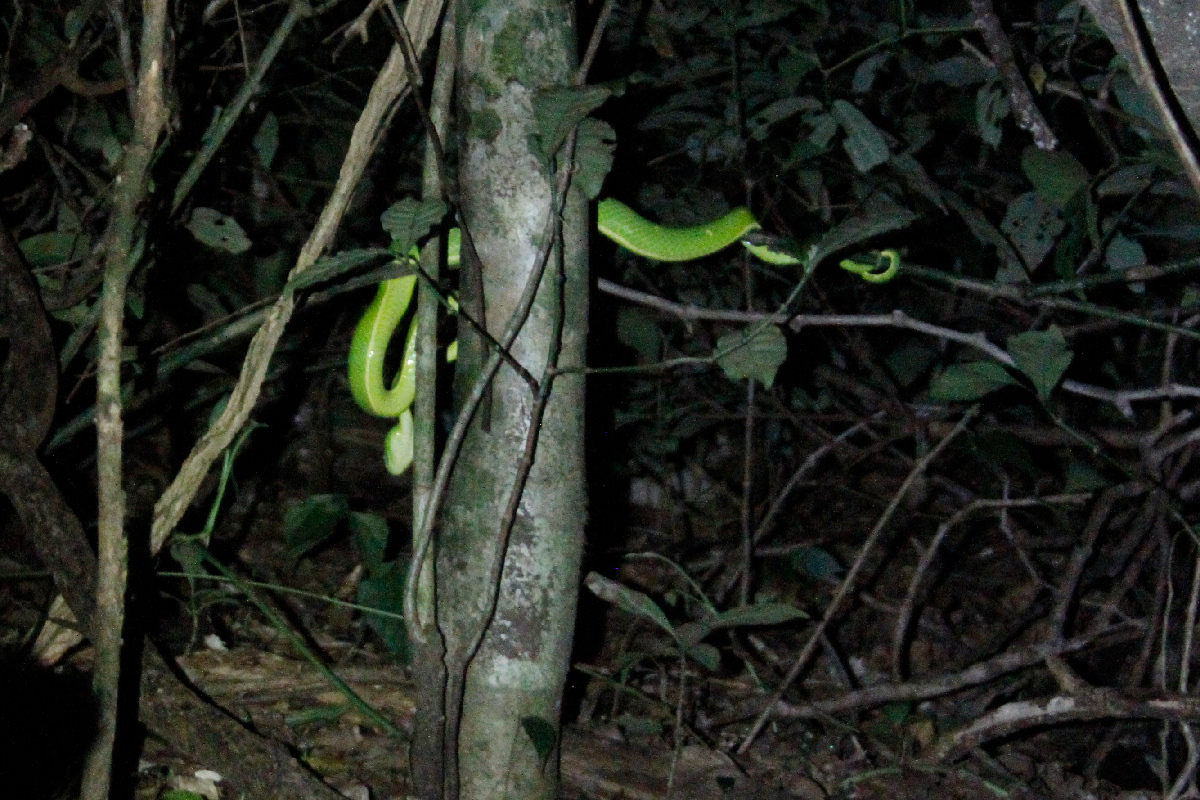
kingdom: Animalia
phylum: Chordata
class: Squamata
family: Viperidae
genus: Bothriechis
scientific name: Bothriechis lateralis
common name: Coffee palm viper
